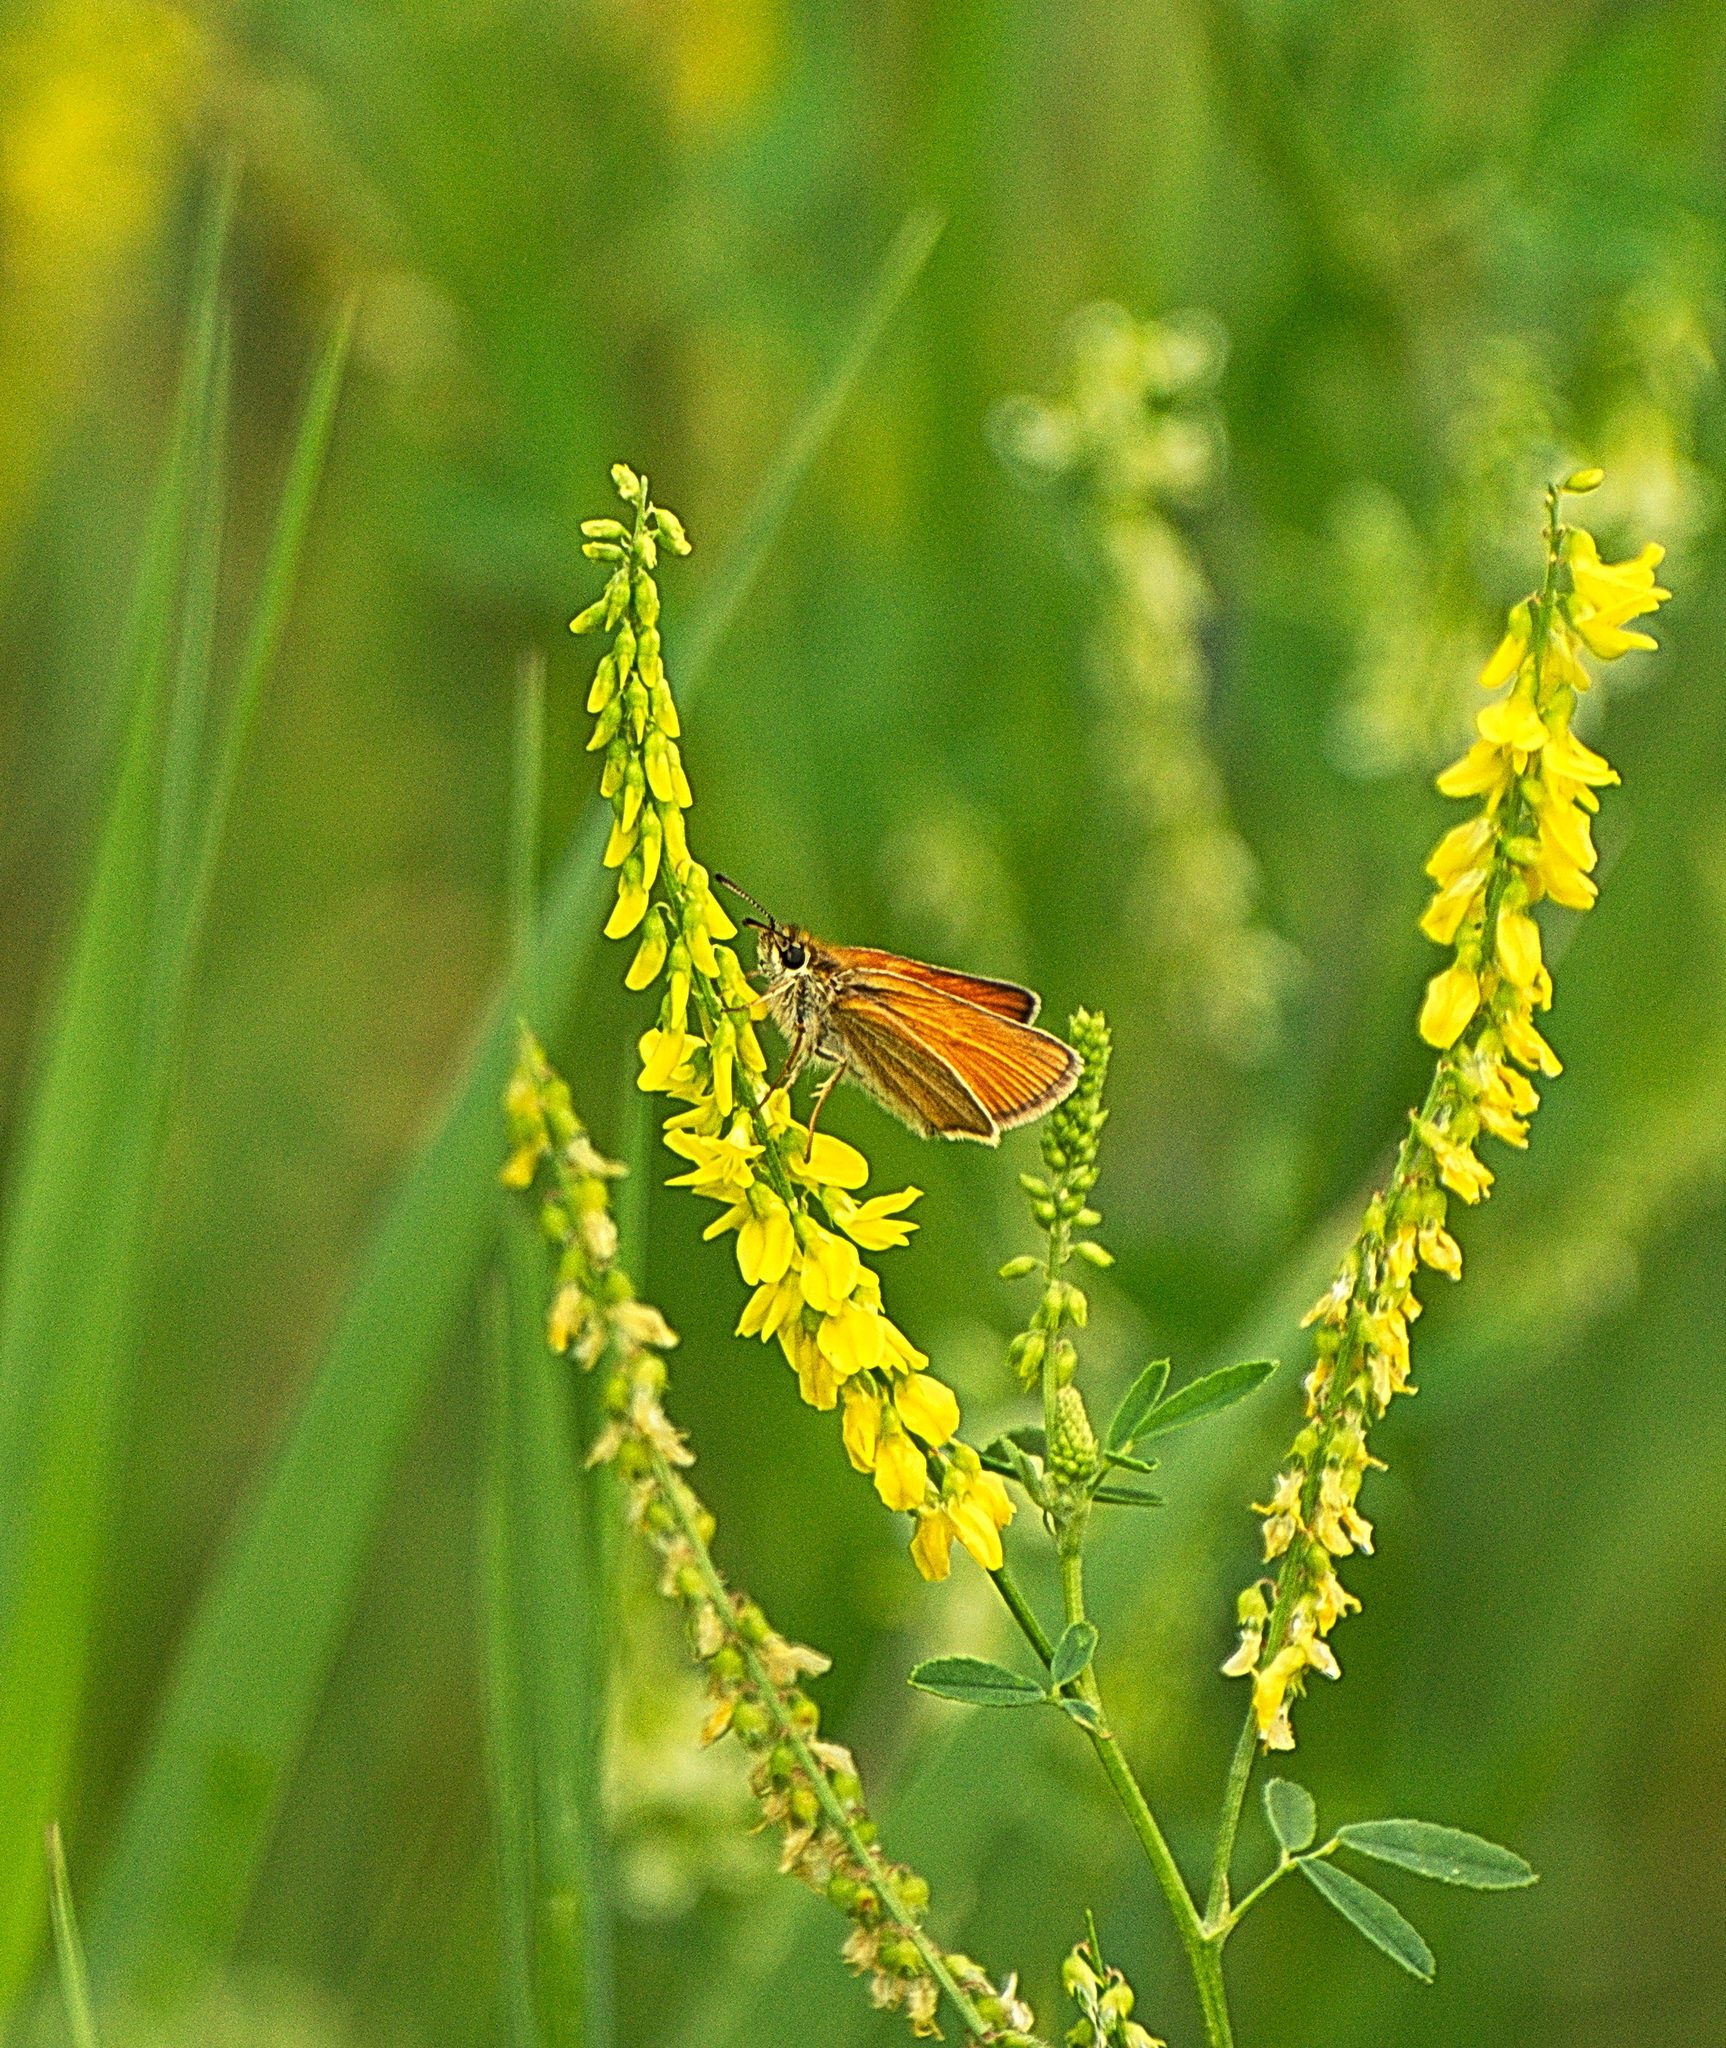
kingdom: Animalia
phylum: Arthropoda
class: Insecta
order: Lepidoptera
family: Hesperiidae
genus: Thymelicus
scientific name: Thymelicus lineola
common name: Essex skipper
